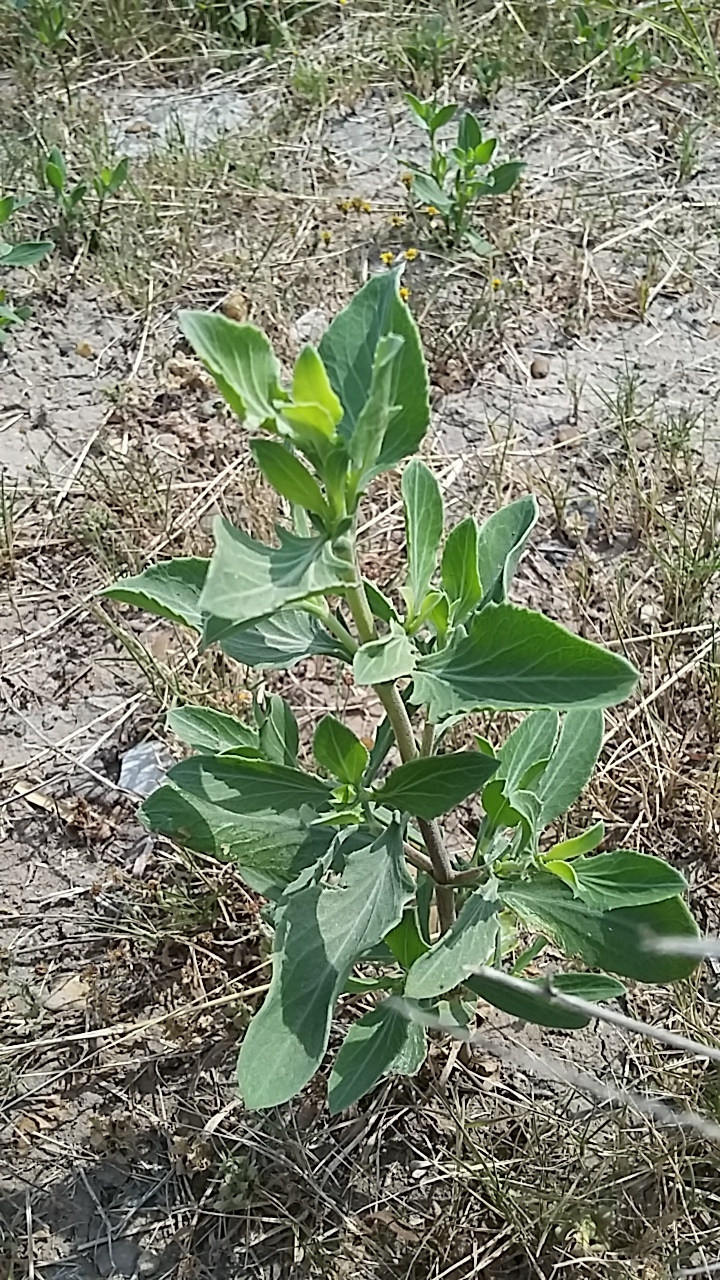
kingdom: Plantae
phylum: Tracheophyta
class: Magnoliopsida
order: Asterales
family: Asteraceae
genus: Borrichia
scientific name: Borrichia frutescens
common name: Sea oxeye
